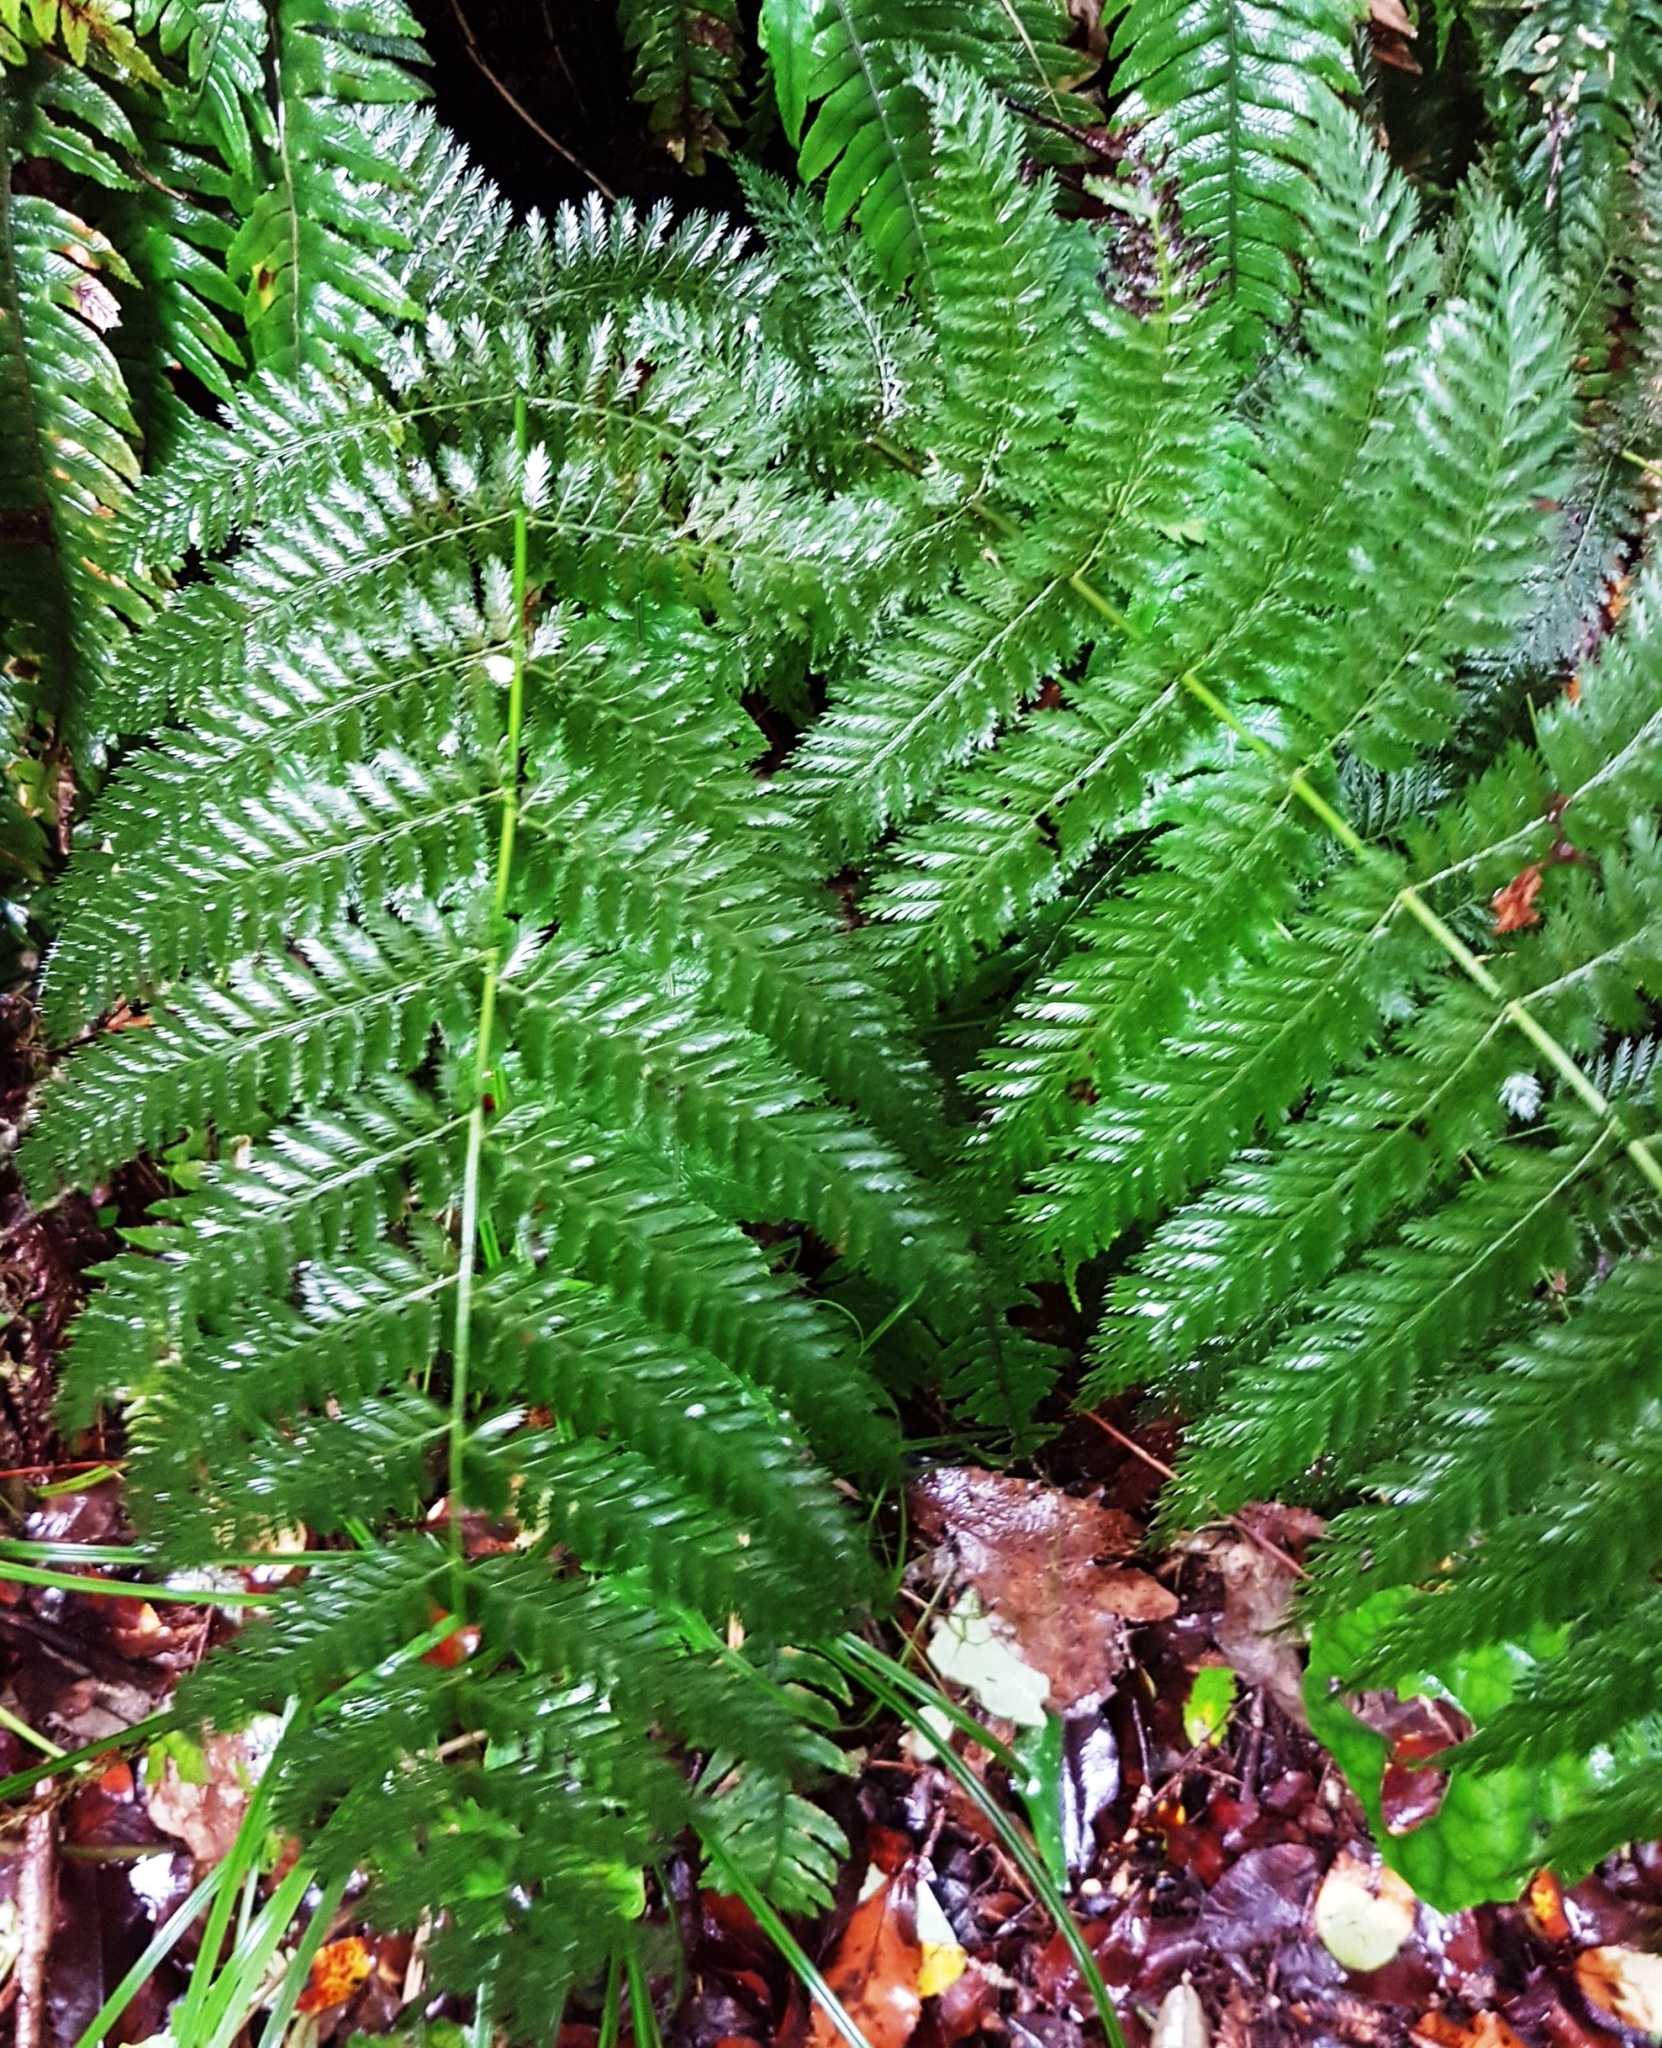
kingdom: Plantae
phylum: Tracheophyta
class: Polypodiopsida
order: Osmundales
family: Osmundaceae
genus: Leptopteris
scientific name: Leptopteris hymenophylloides
